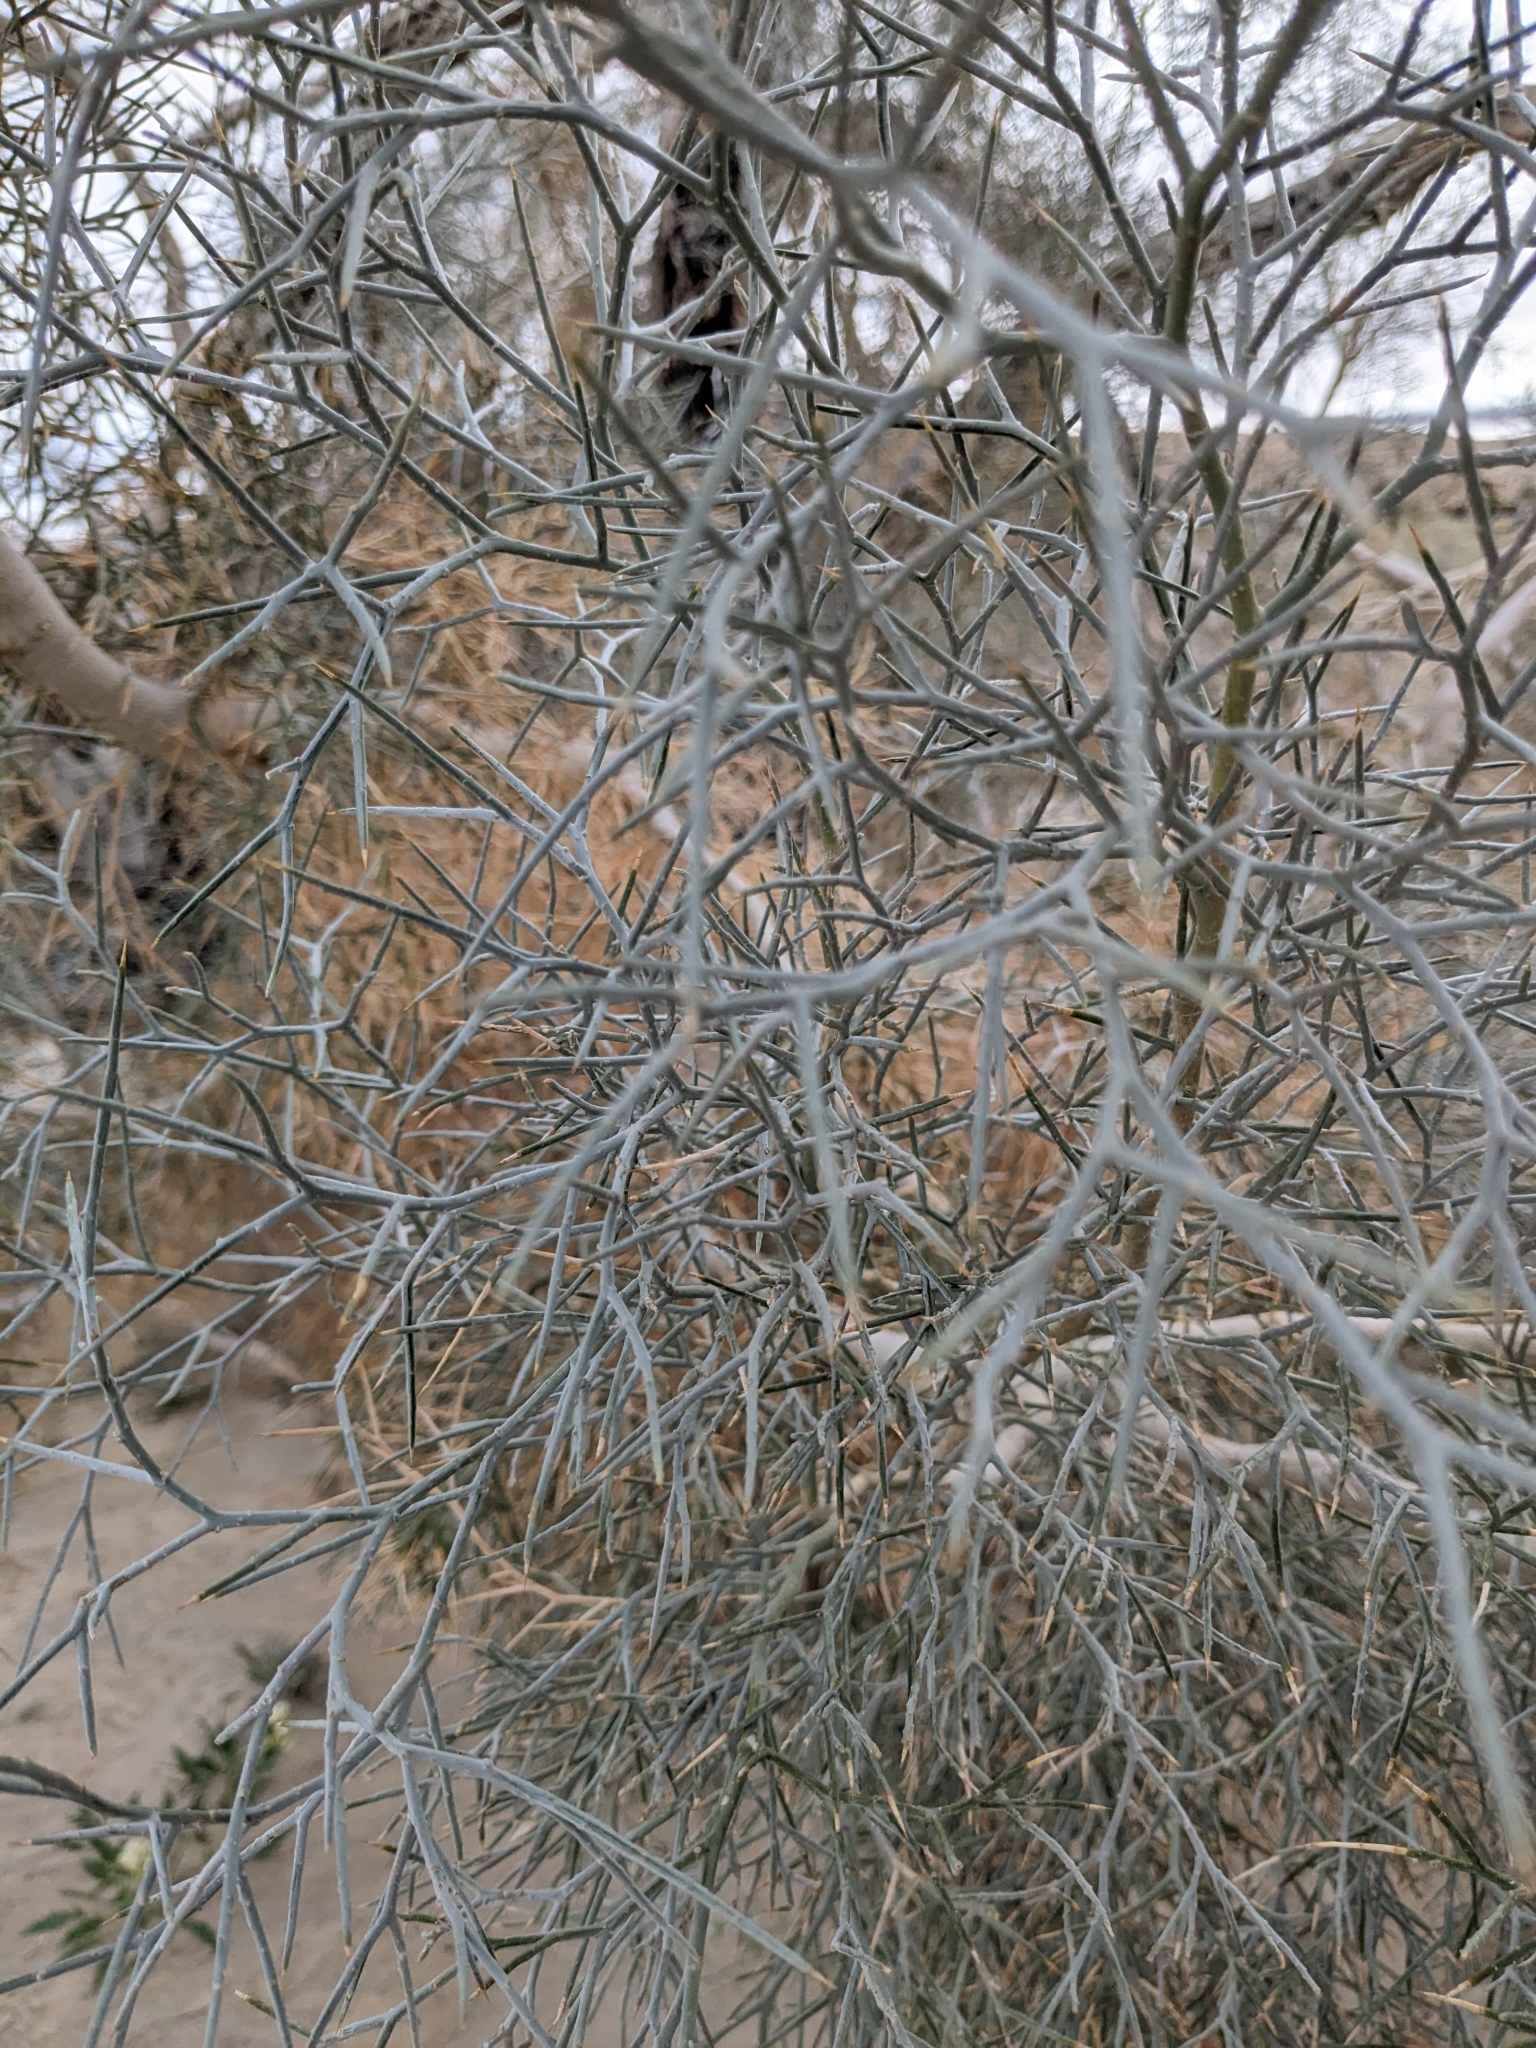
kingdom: Plantae
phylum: Tracheophyta
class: Magnoliopsida
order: Fabales
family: Fabaceae
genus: Psorothamnus
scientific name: Psorothamnus spinosus
